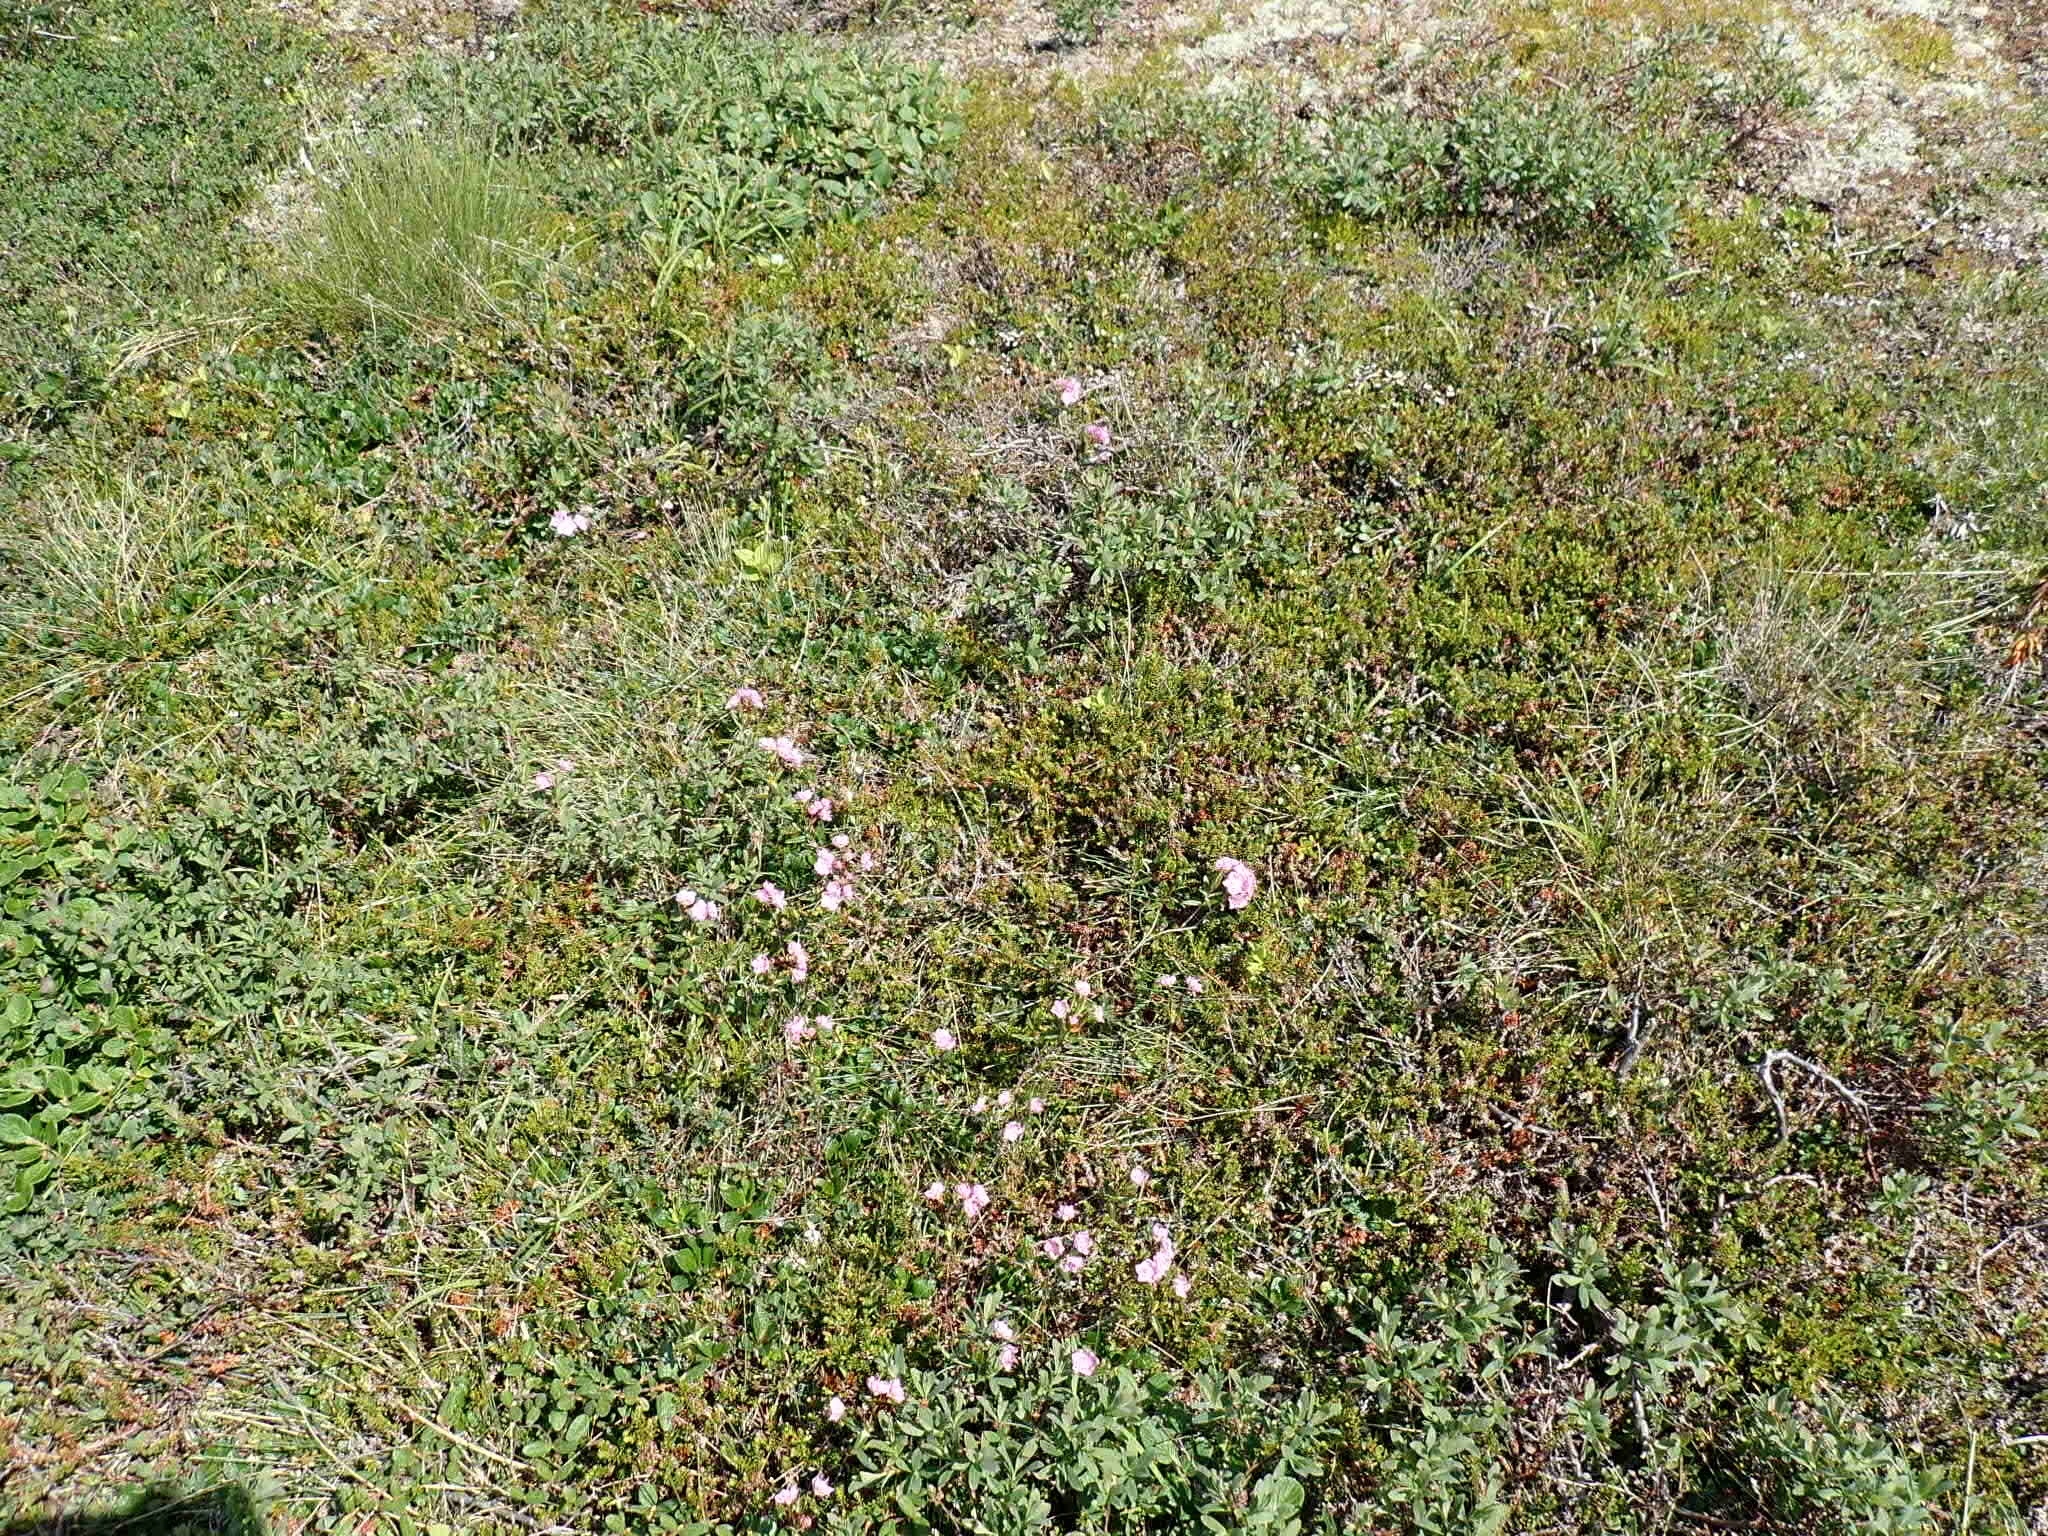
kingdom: Plantae
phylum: Tracheophyta
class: Magnoliopsida
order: Ericales
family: Ericaceae
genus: Kalmia
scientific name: Kalmia polifolia
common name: Bog-laurel
